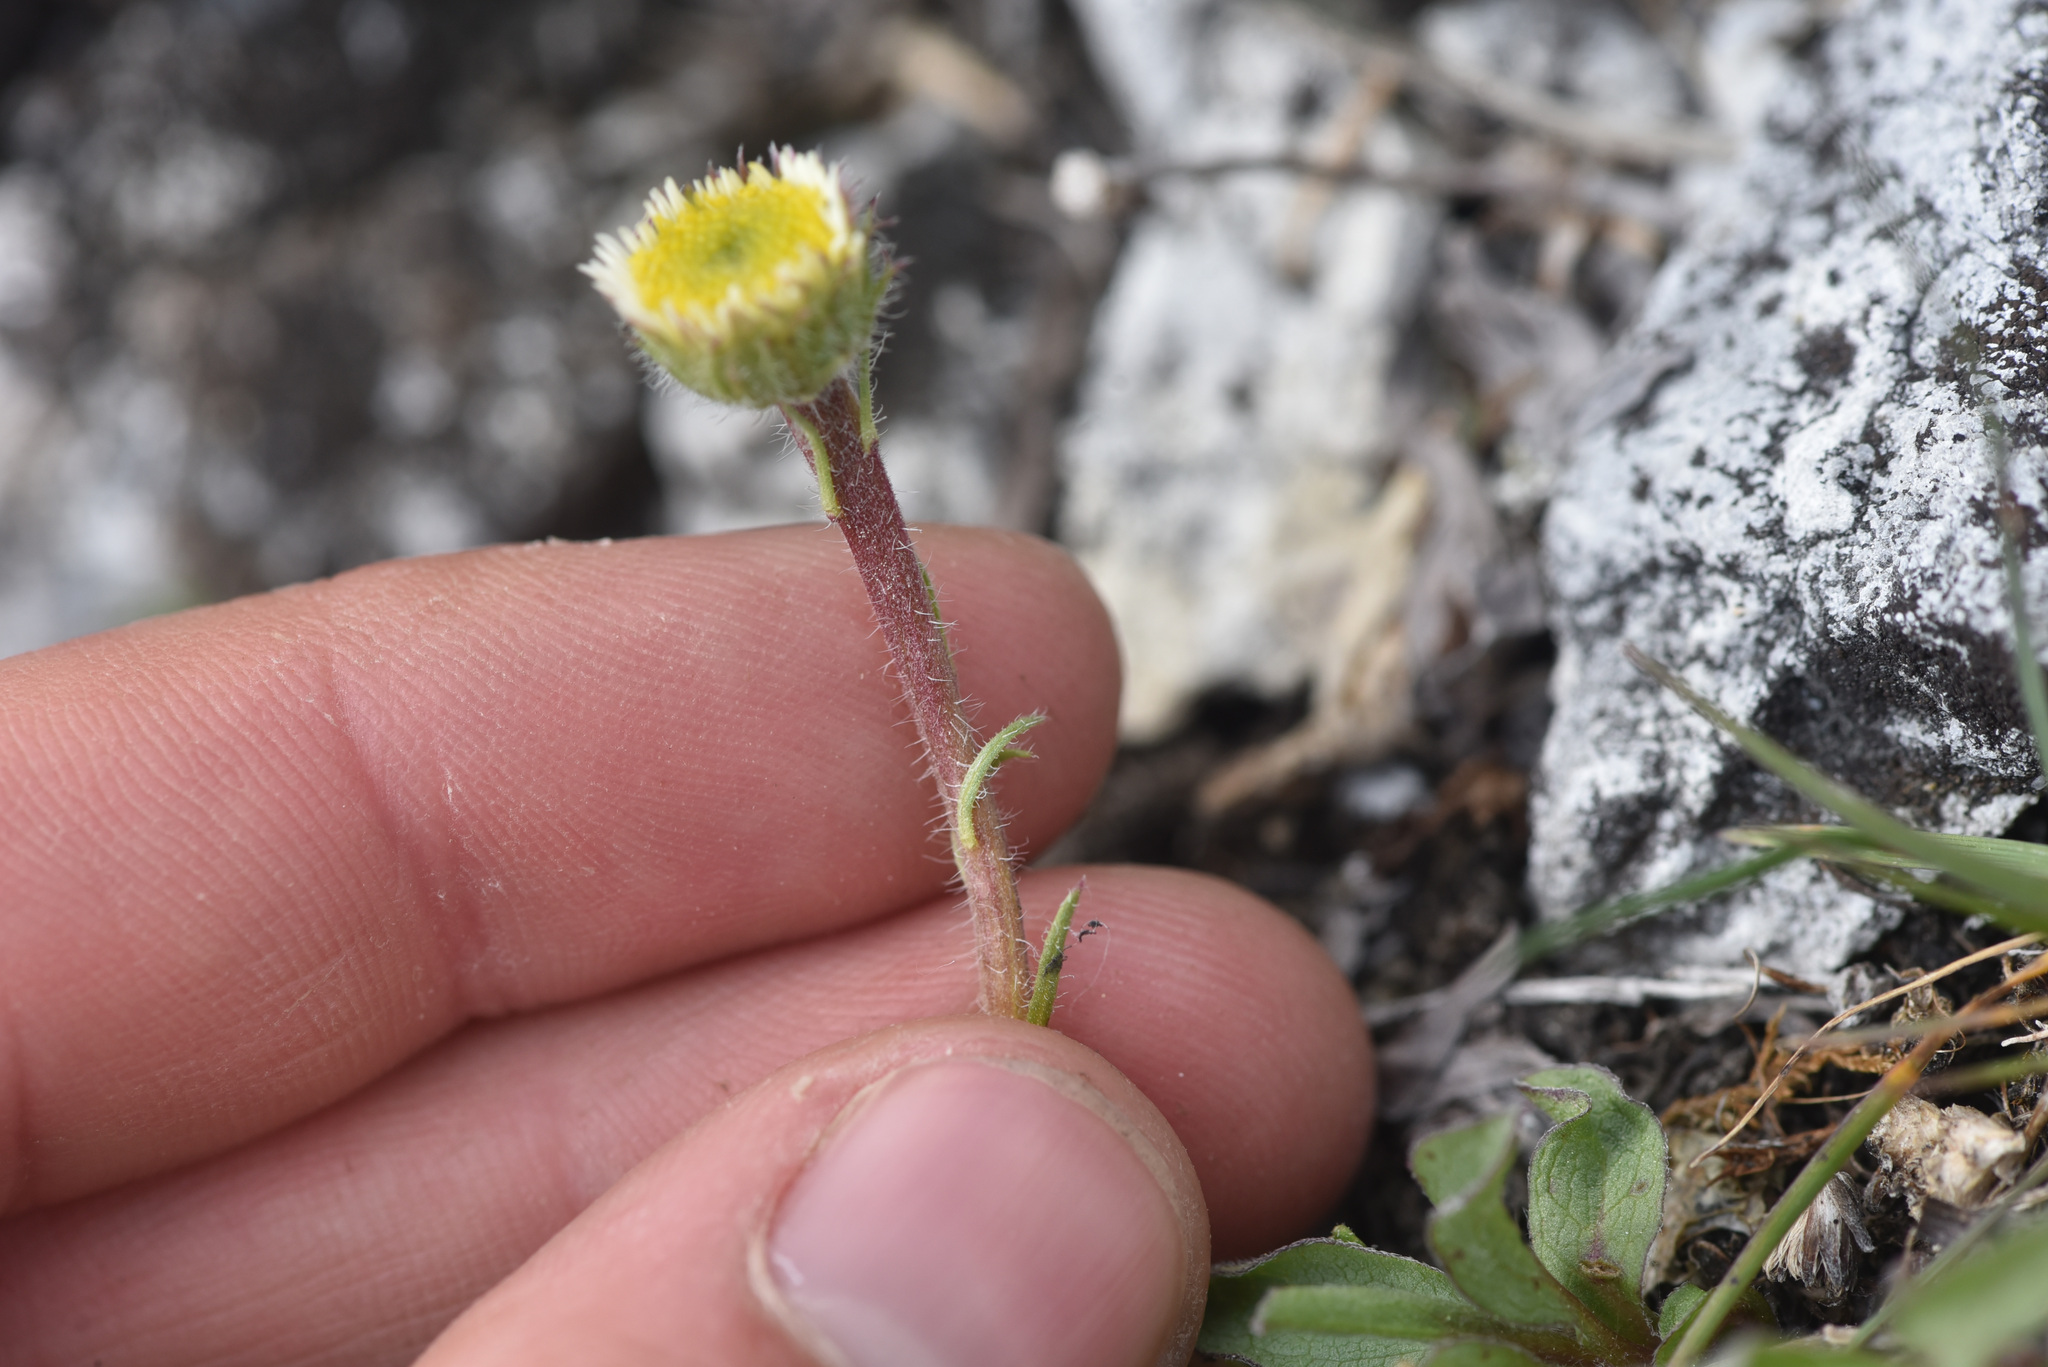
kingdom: Plantae
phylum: Tracheophyta
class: Magnoliopsida
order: Asterales
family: Asteraceae
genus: Erigeron
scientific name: Erigeron compositus
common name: Dwarf mountain fleabane
